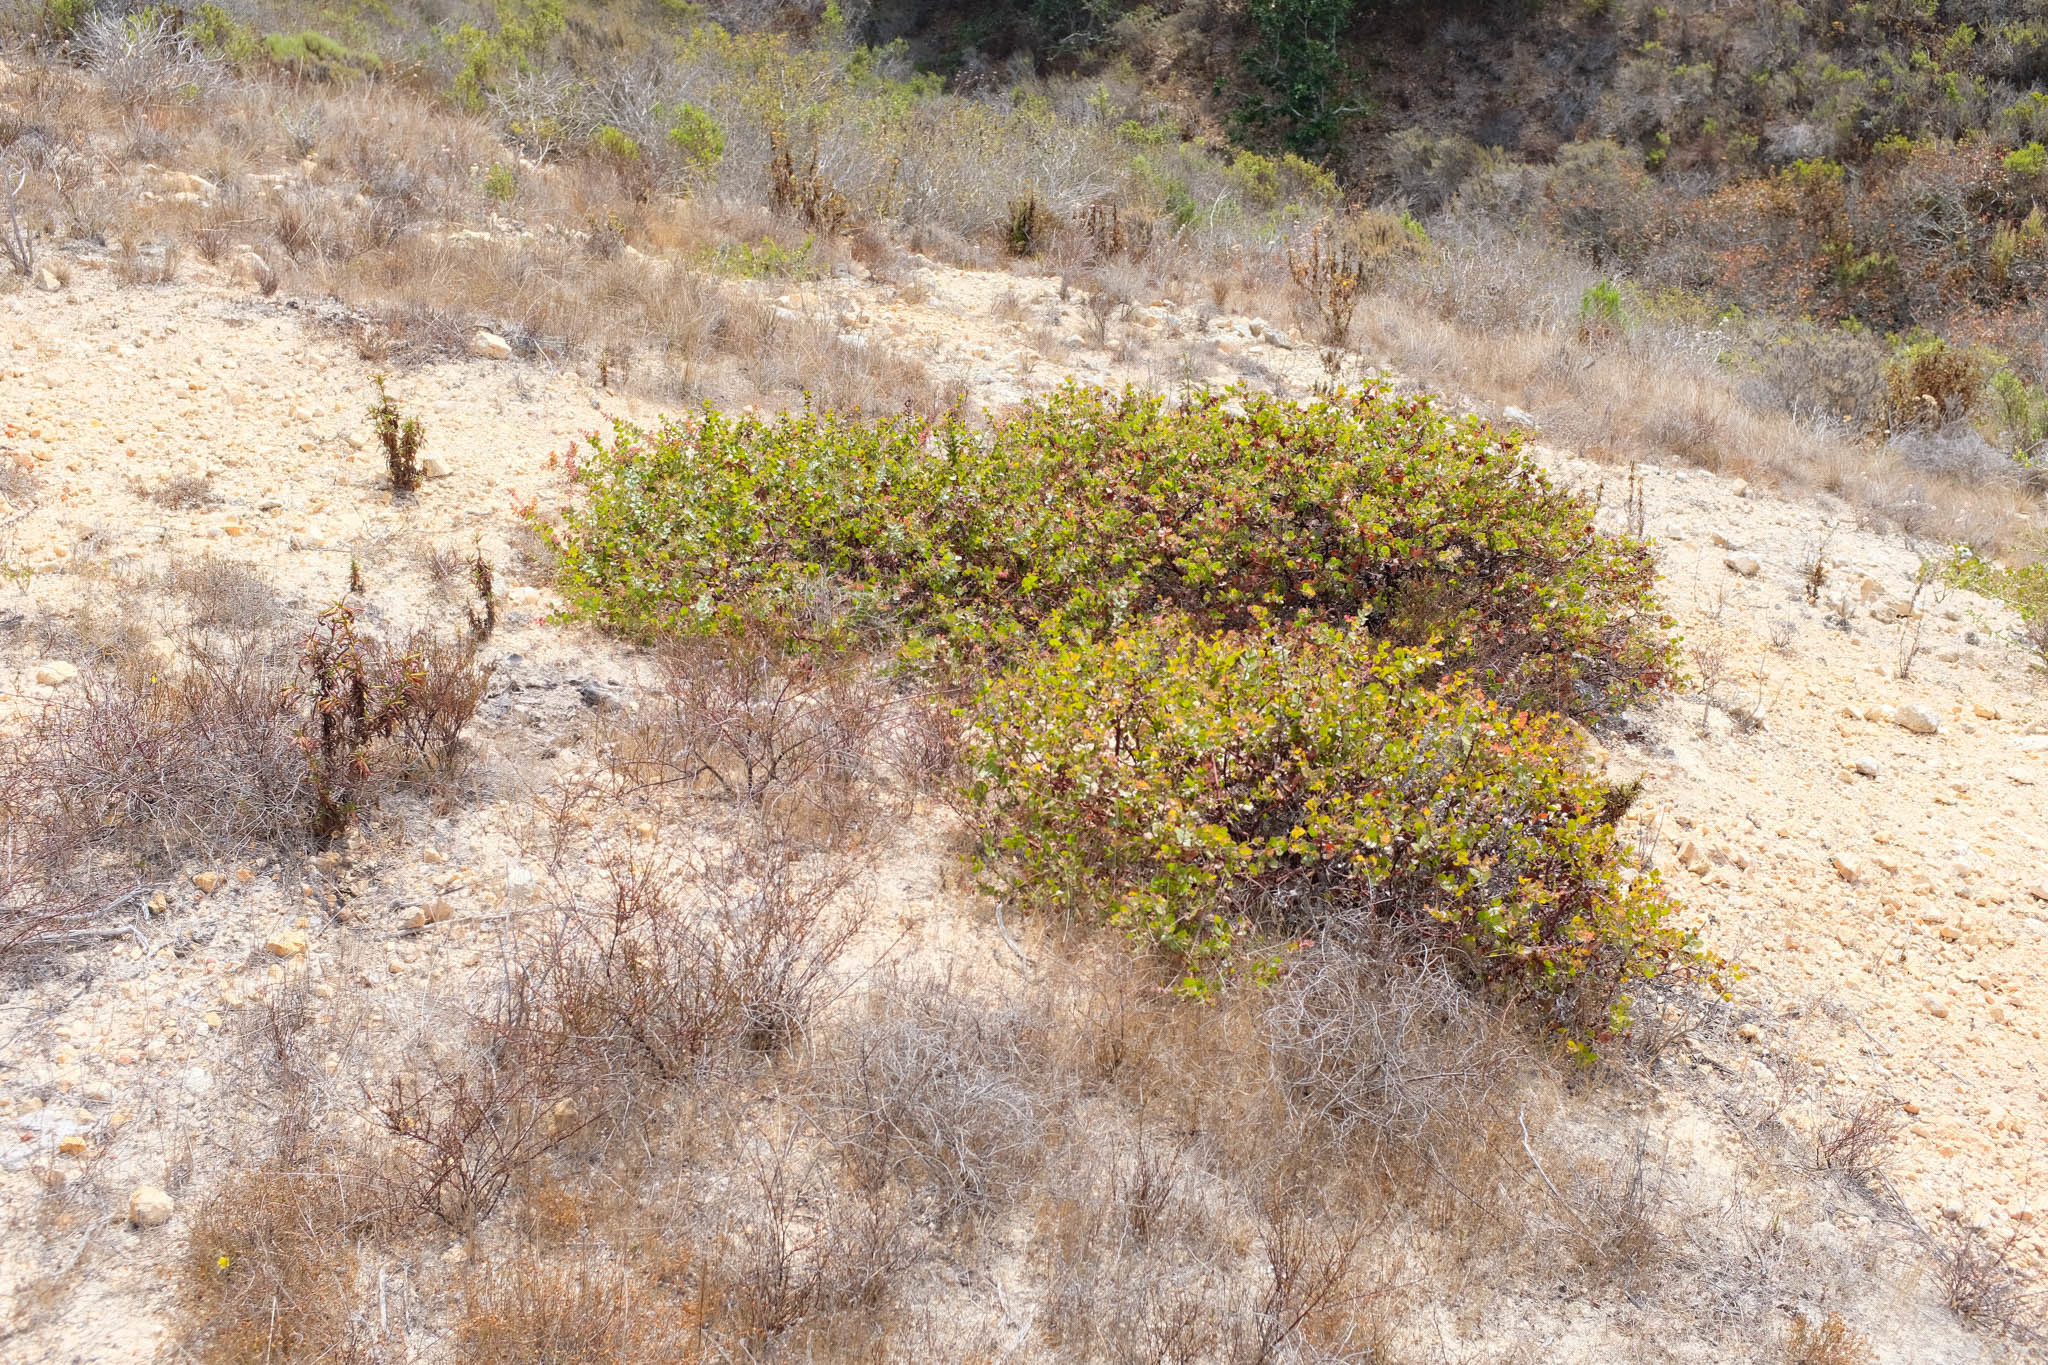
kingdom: Plantae
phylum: Tracheophyta
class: Magnoliopsida
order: Ericales
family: Ericaceae
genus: Arctostaphylos
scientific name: Arctostaphylos osoensis
